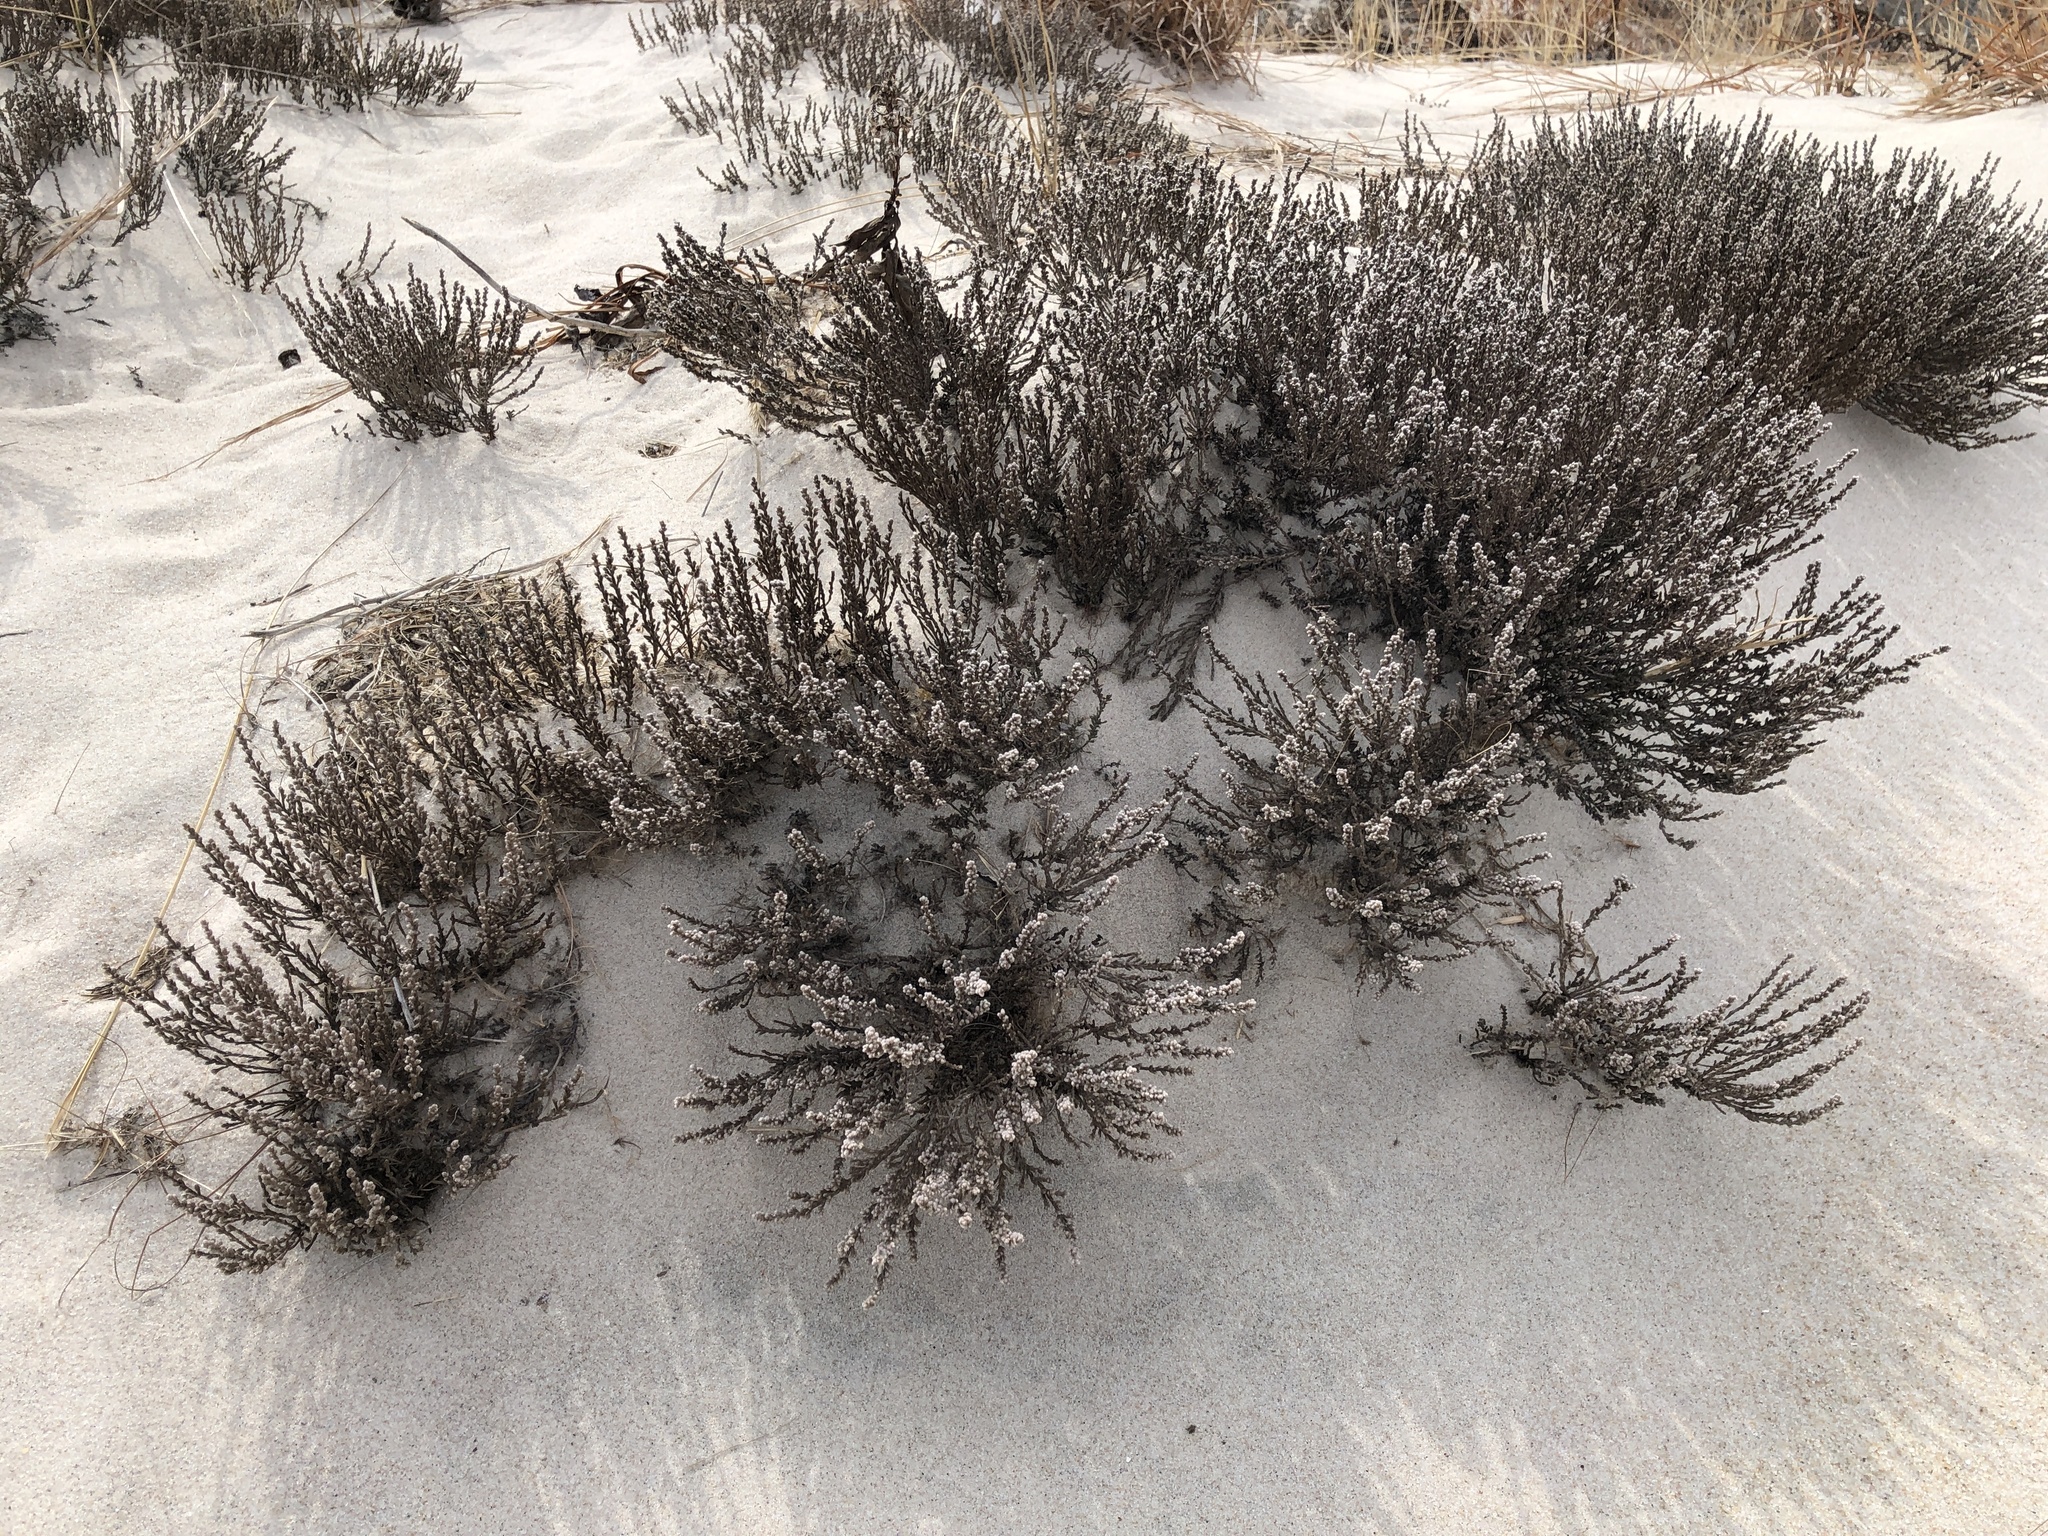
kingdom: Plantae
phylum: Tracheophyta
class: Magnoliopsida
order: Malvales
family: Cistaceae
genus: Hudsonia
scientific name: Hudsonia tomentosa
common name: Beach-heath
